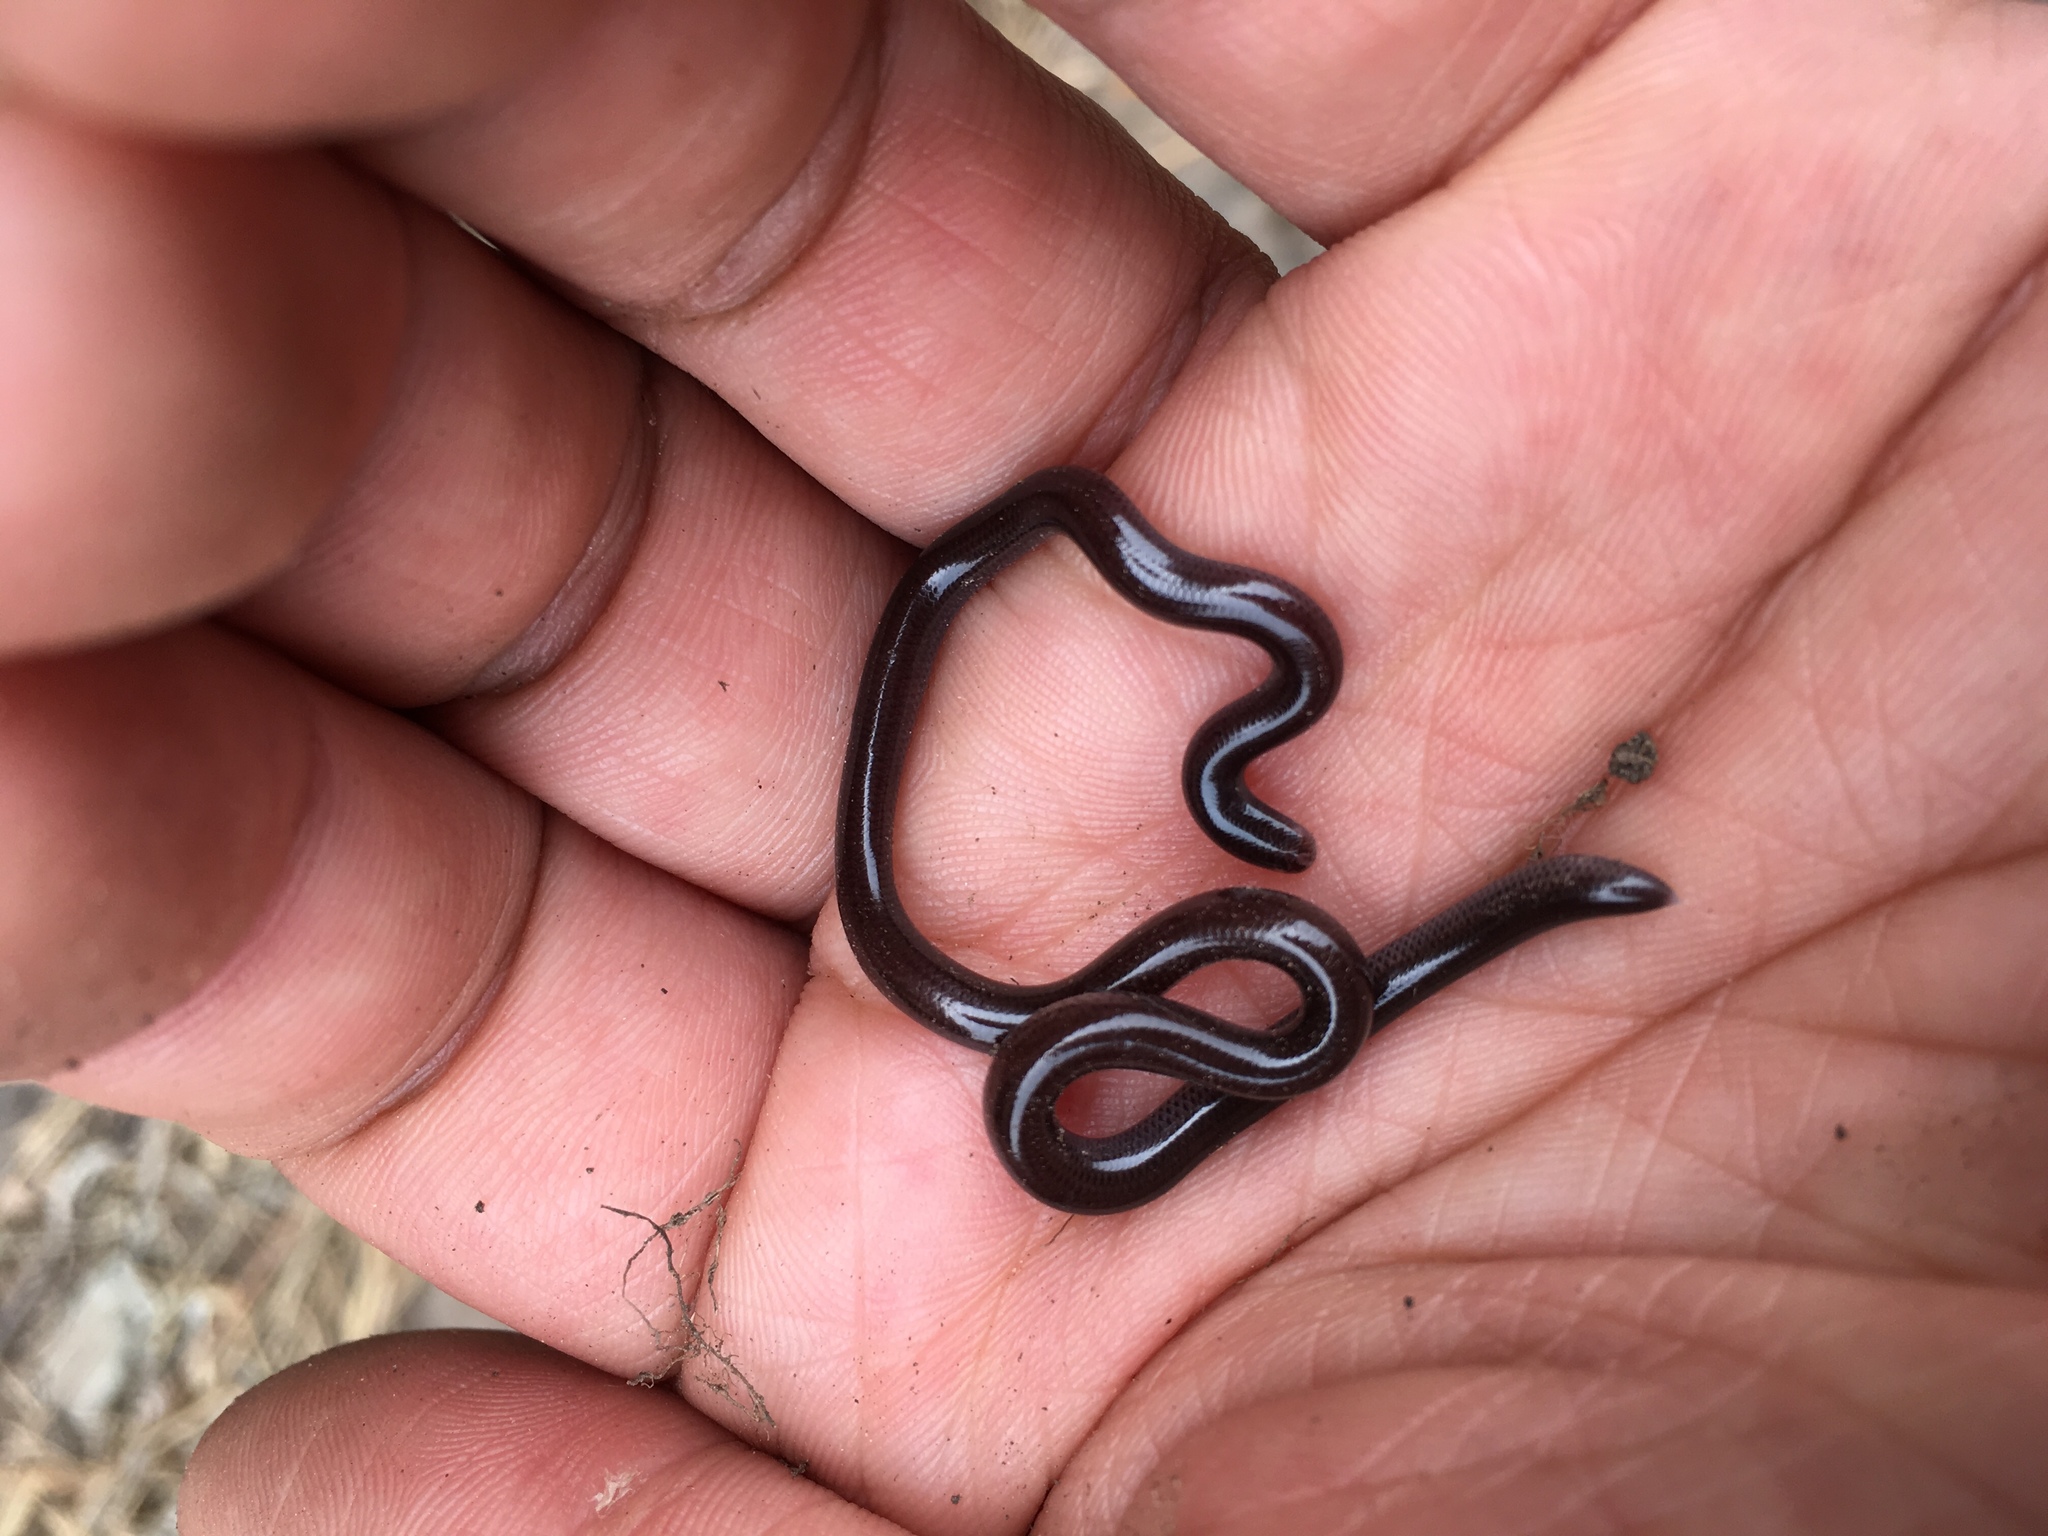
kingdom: Animalia
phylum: Chordata
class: Squamata
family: Typhlopidae
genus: Indotyphlops
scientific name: Indotyphlops braminus
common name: Brahminy blindsnake
